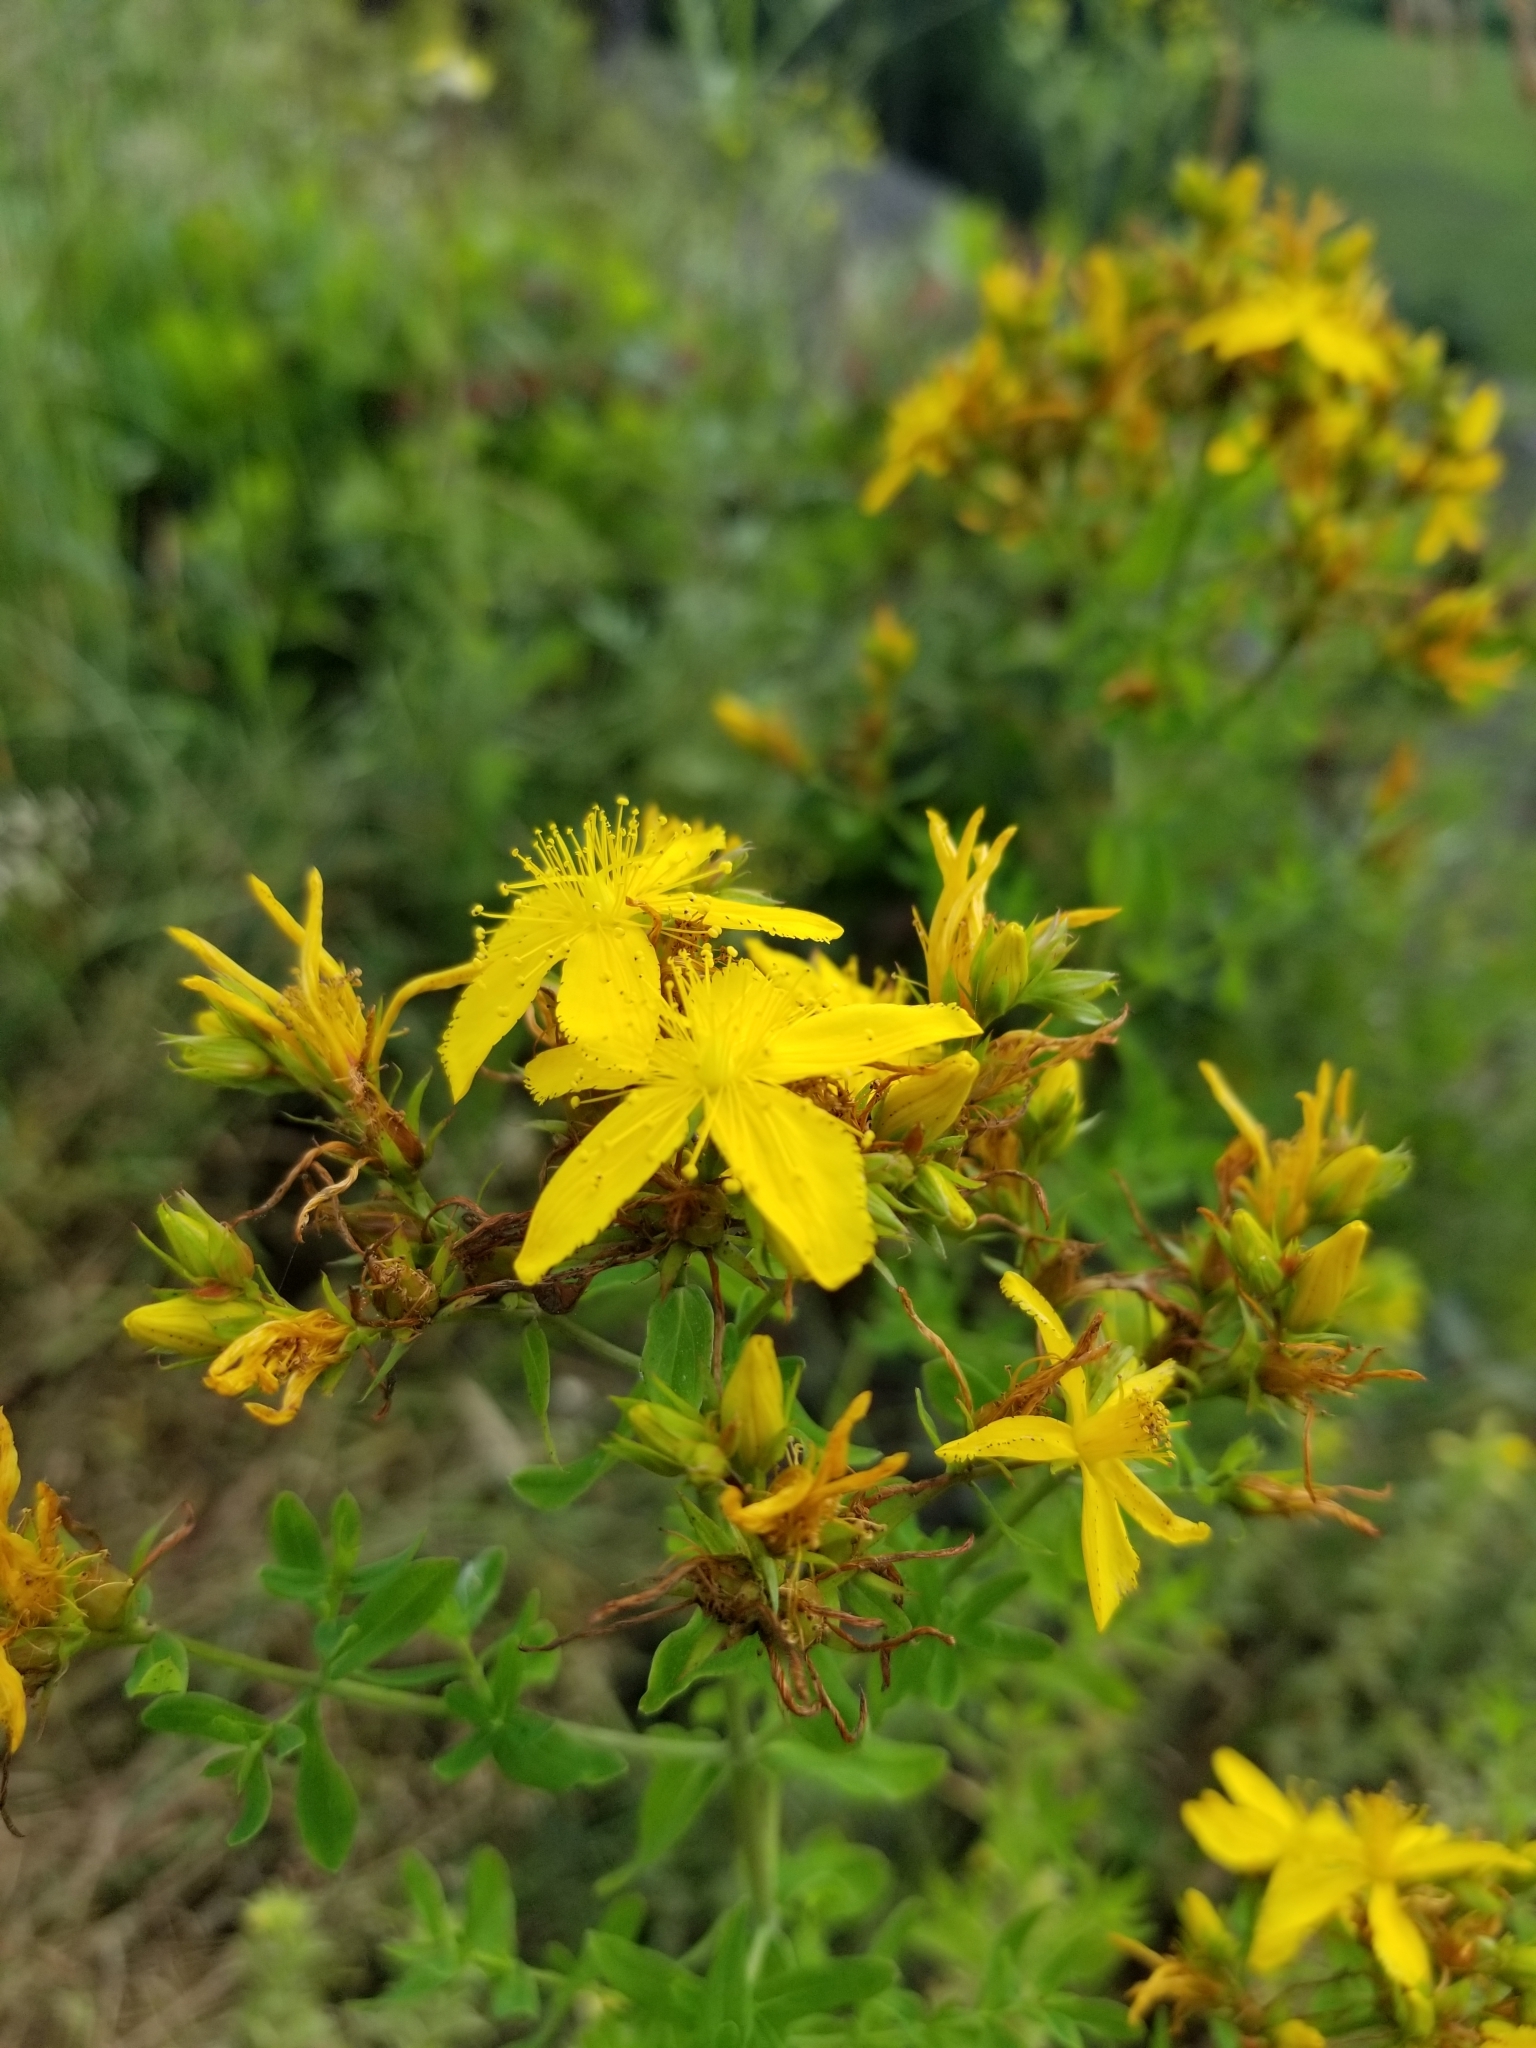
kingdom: Plantae
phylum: Tracheophyta
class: Magnoliopsida
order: Malpighiales
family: Hypericaceae
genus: Hypericum
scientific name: Hypericum perforatum
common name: Common st. johnswort
